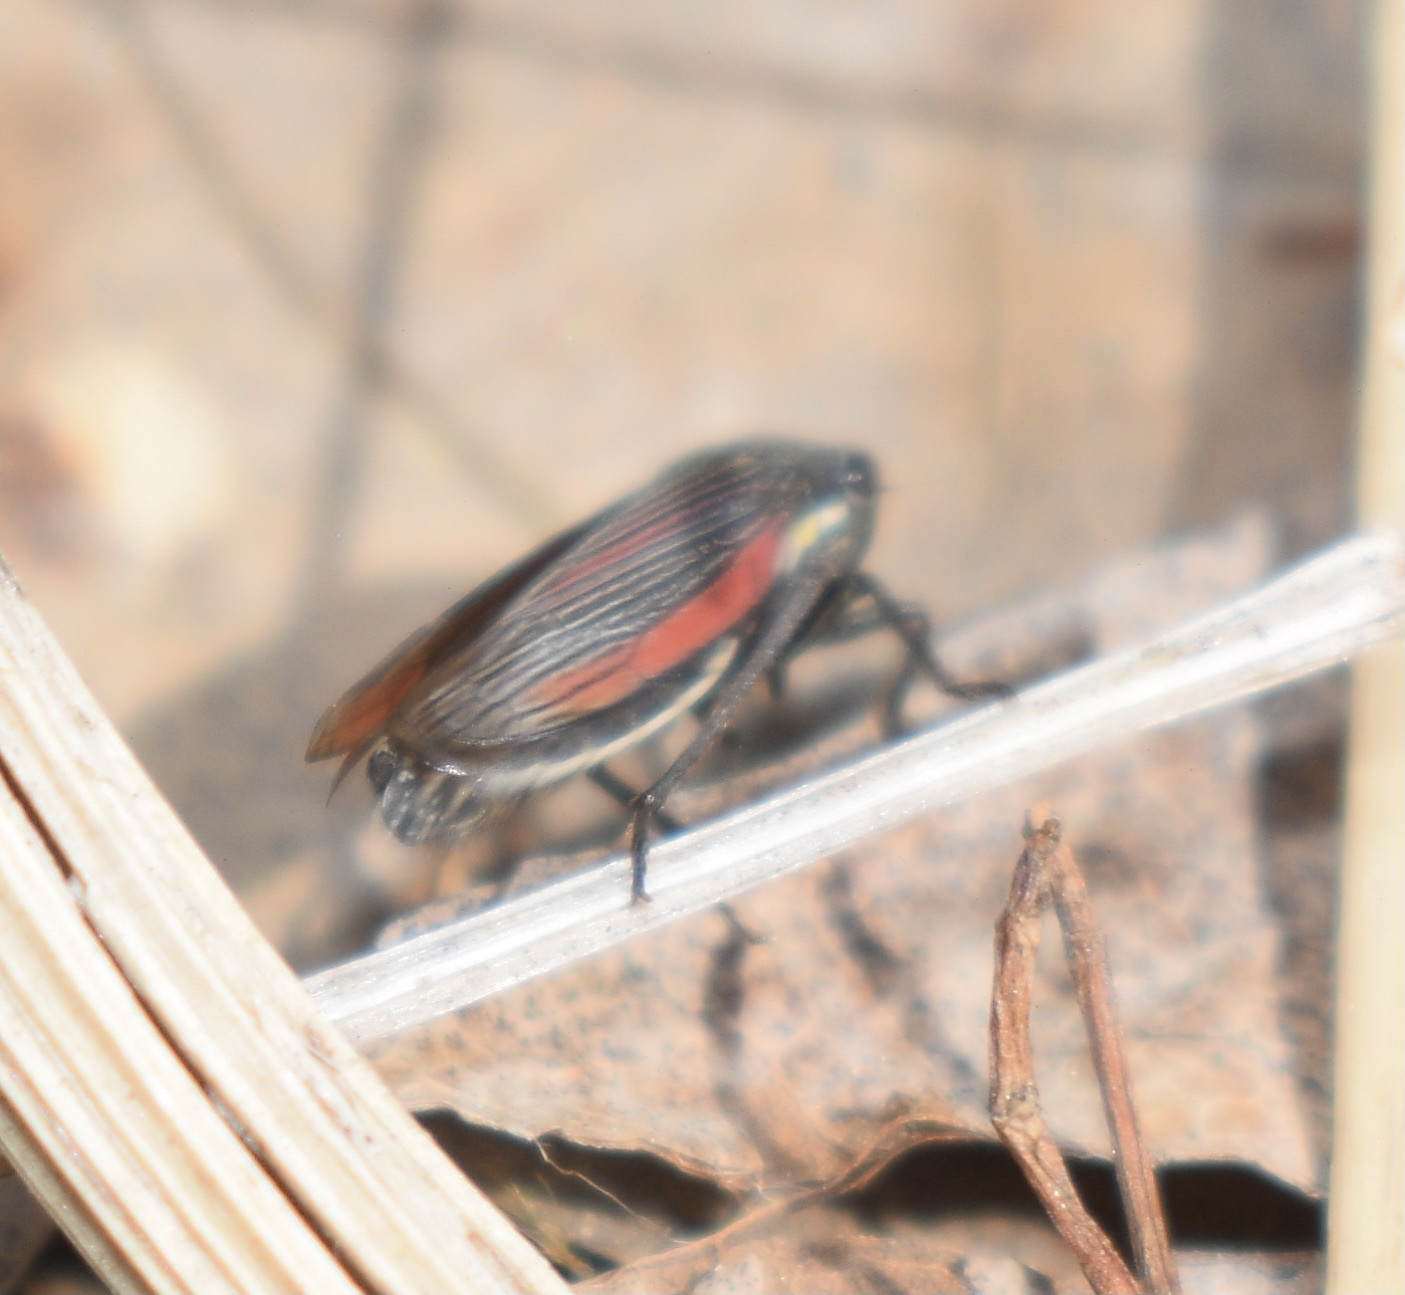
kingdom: Animalia
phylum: Arthropoda
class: Insecta
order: Hemiptera
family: Cicadellidae
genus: Cuerna
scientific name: Cuerna striata
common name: Striped leafhopper
